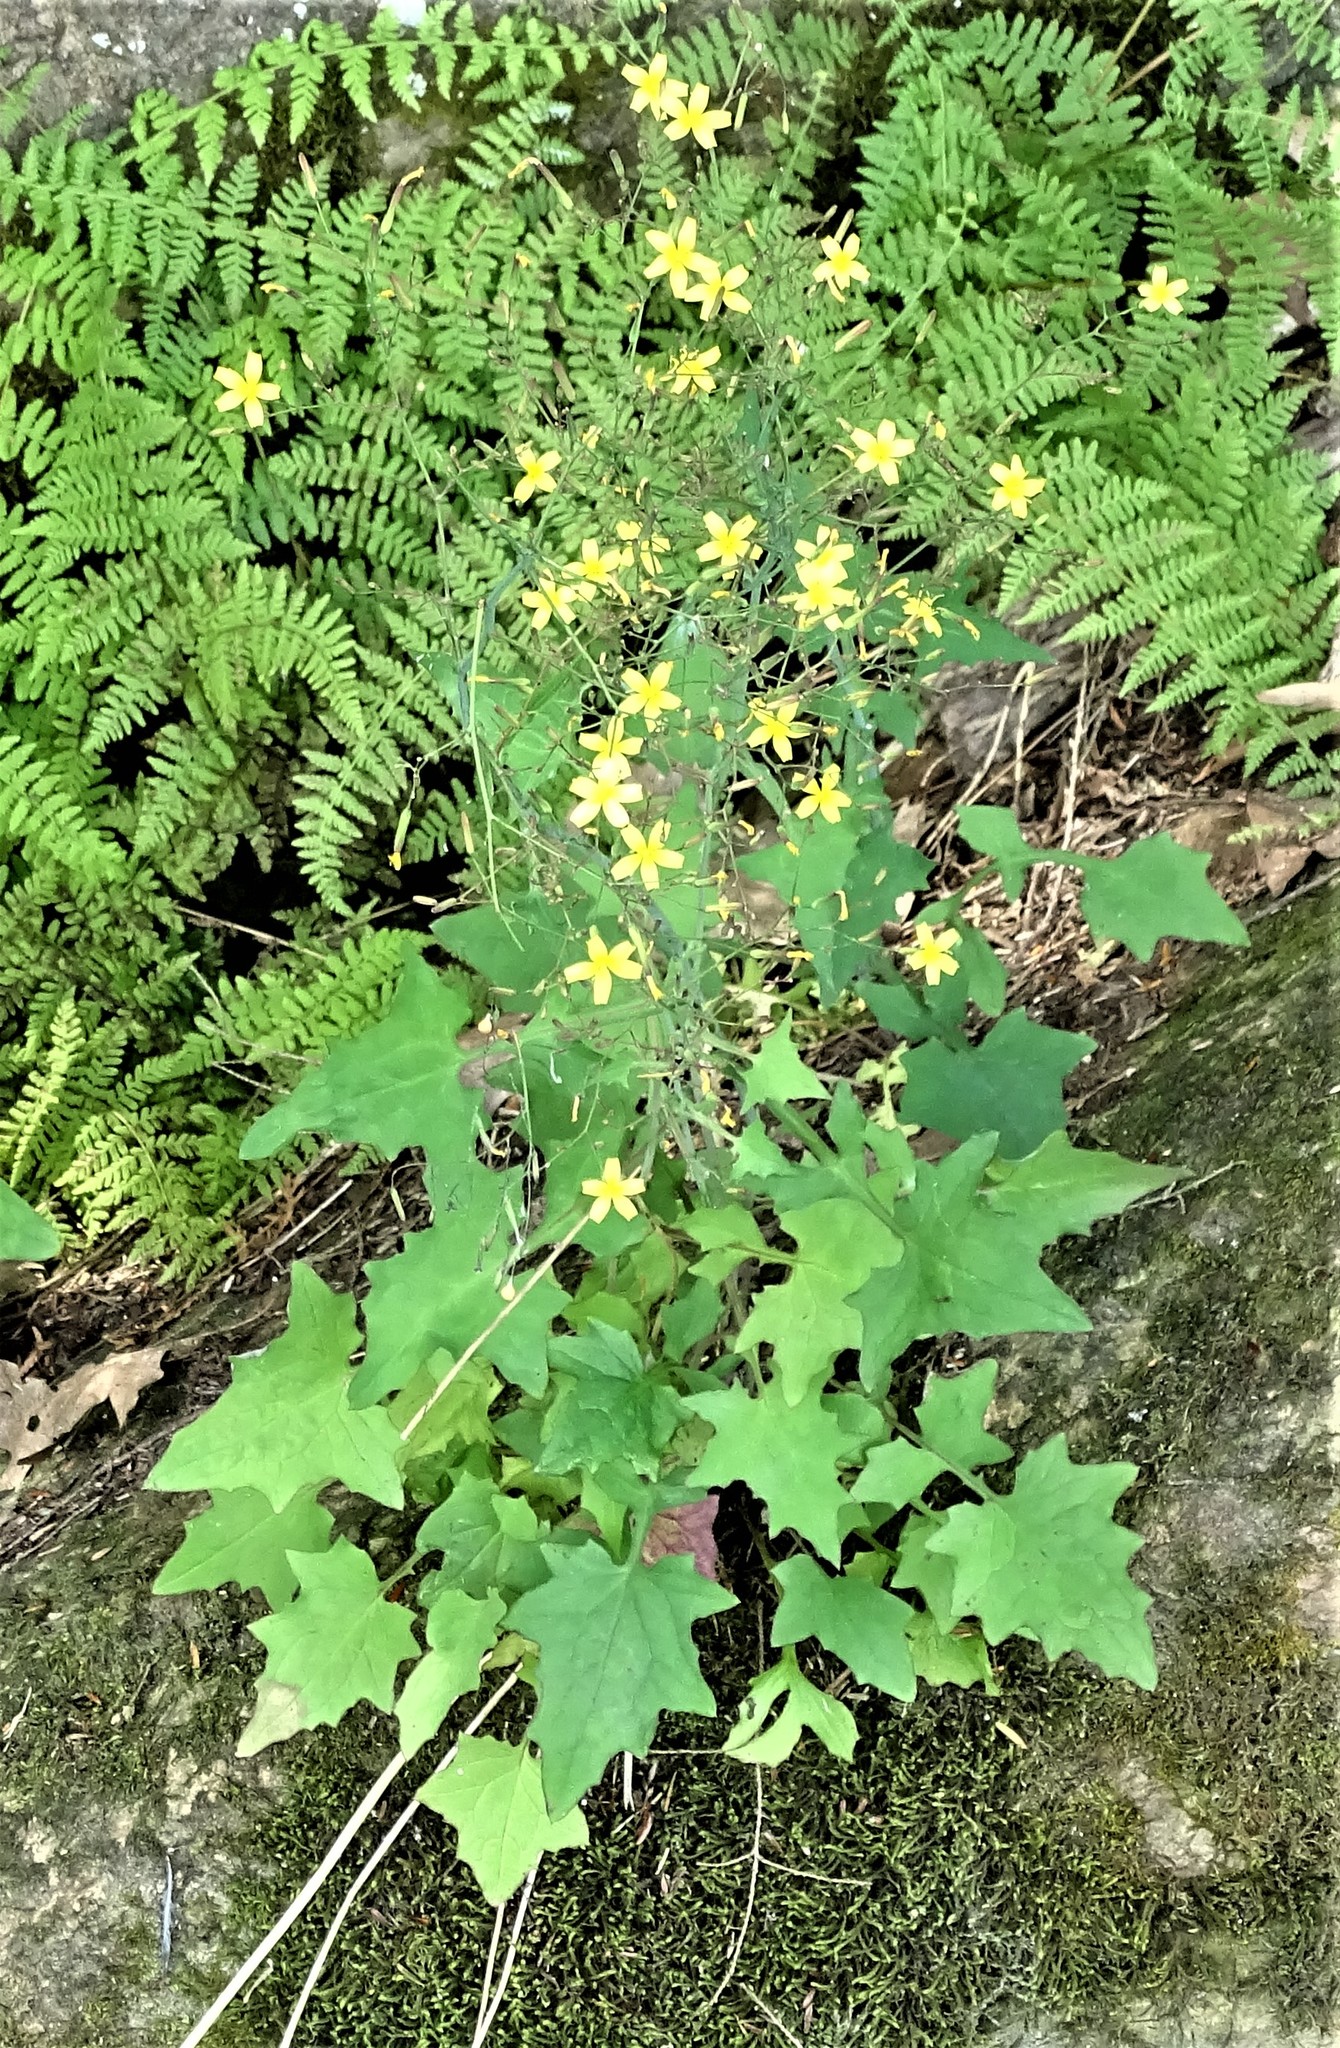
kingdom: Plantae
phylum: Tracheophyta
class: Magnoliopsida
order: Asterales
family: Asteraceae
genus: Mycelis
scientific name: Mycelis muralis
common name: Wall lettuce
